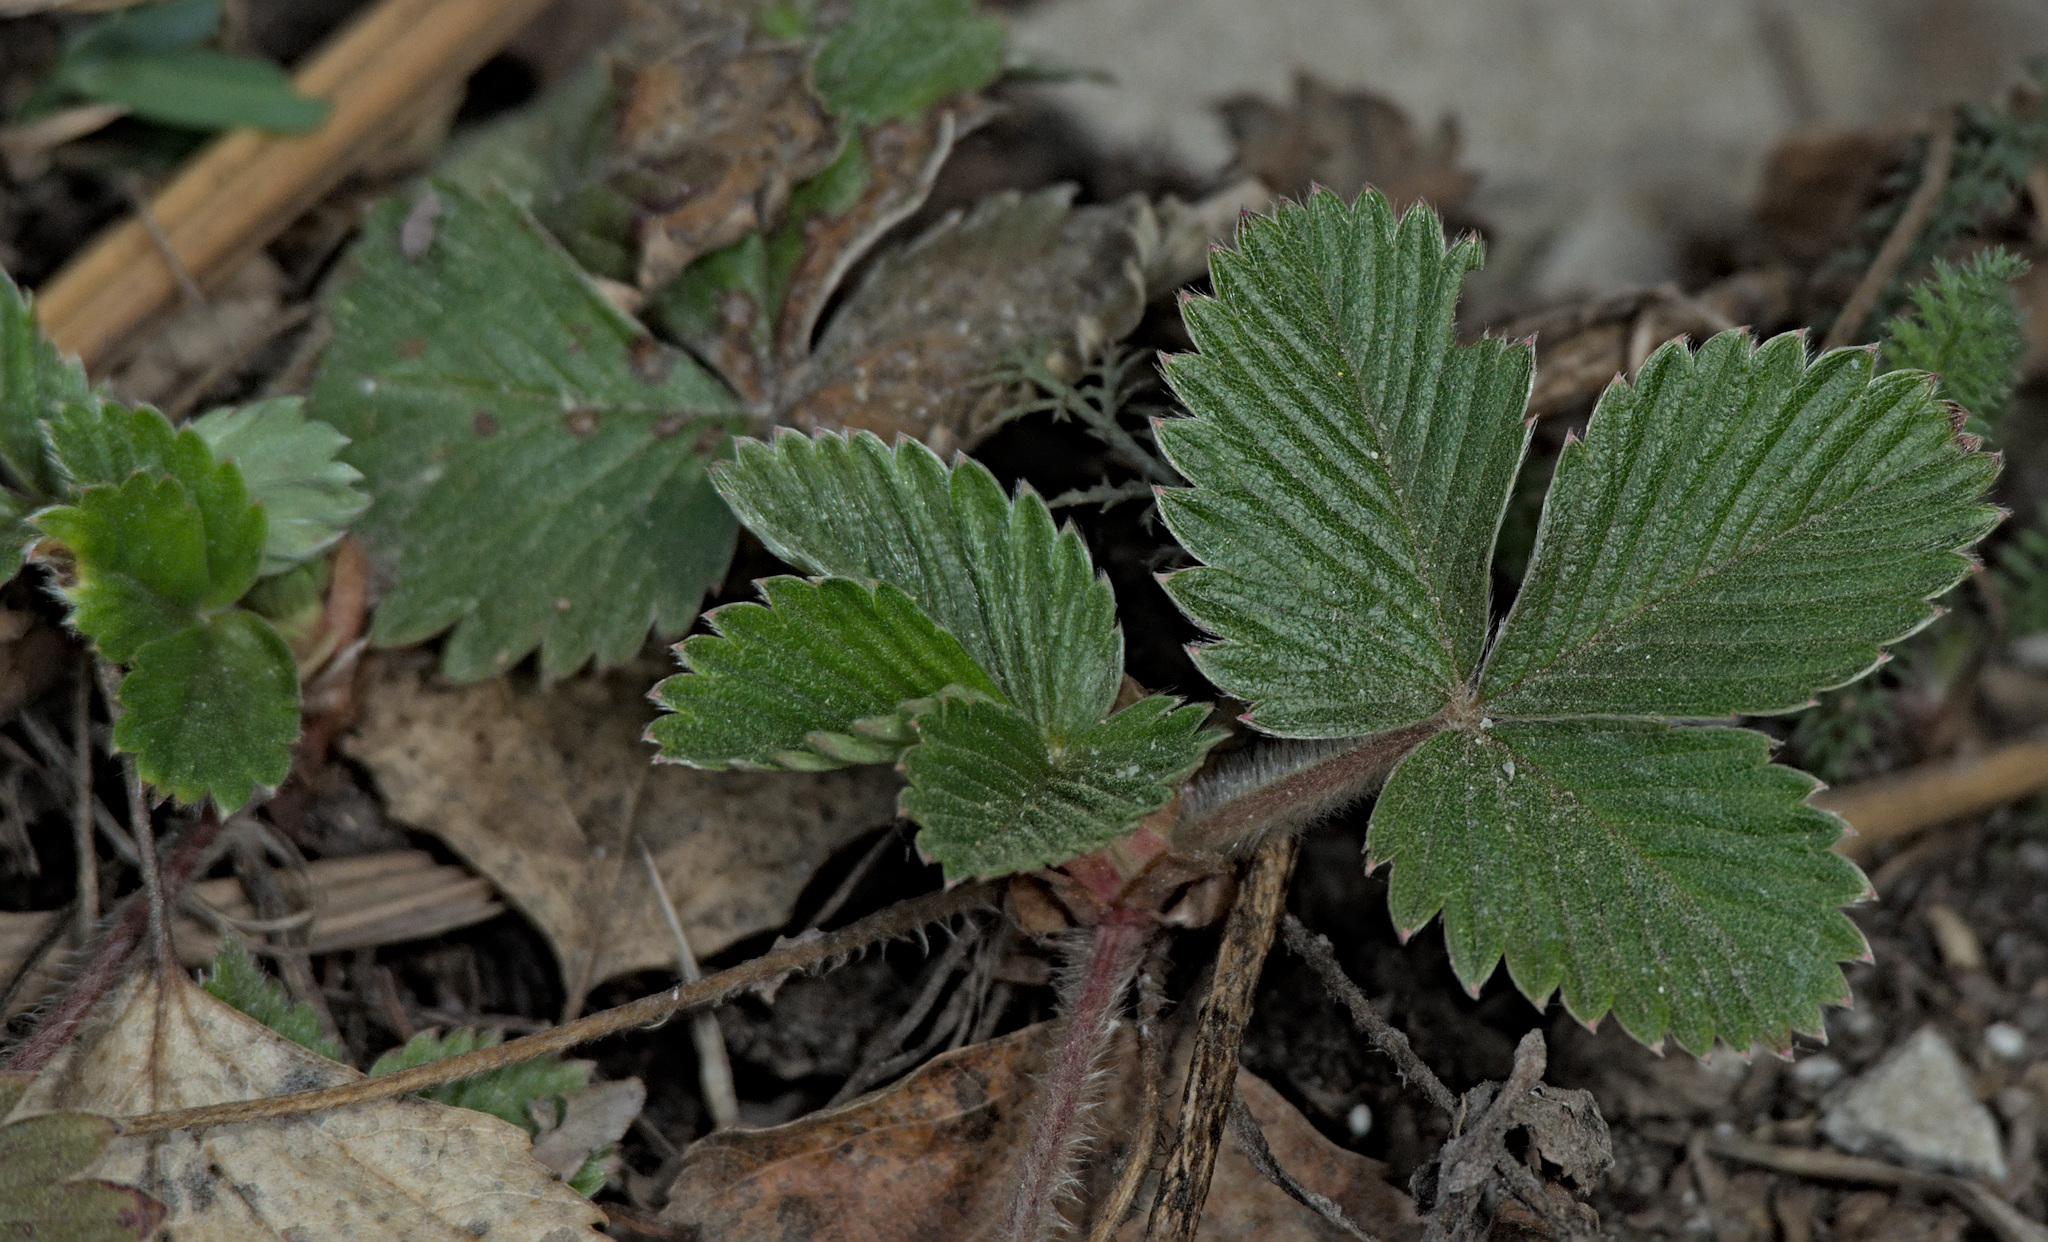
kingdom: Plantae
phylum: Tracheophyta
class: Magnoliopsida
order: Rosales
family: Rosaceae
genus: Fragaria
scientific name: Fragaria vesca
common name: Wild strawberry
